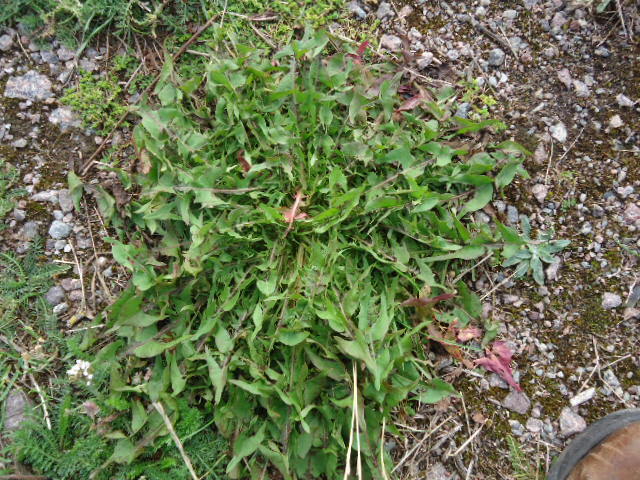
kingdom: Plantae
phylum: Tracheophyta
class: Magnoliopsida
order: Asterales
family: Asteraceae
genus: Taraxacum
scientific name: Taraxacum officinale
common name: Common dandelion
